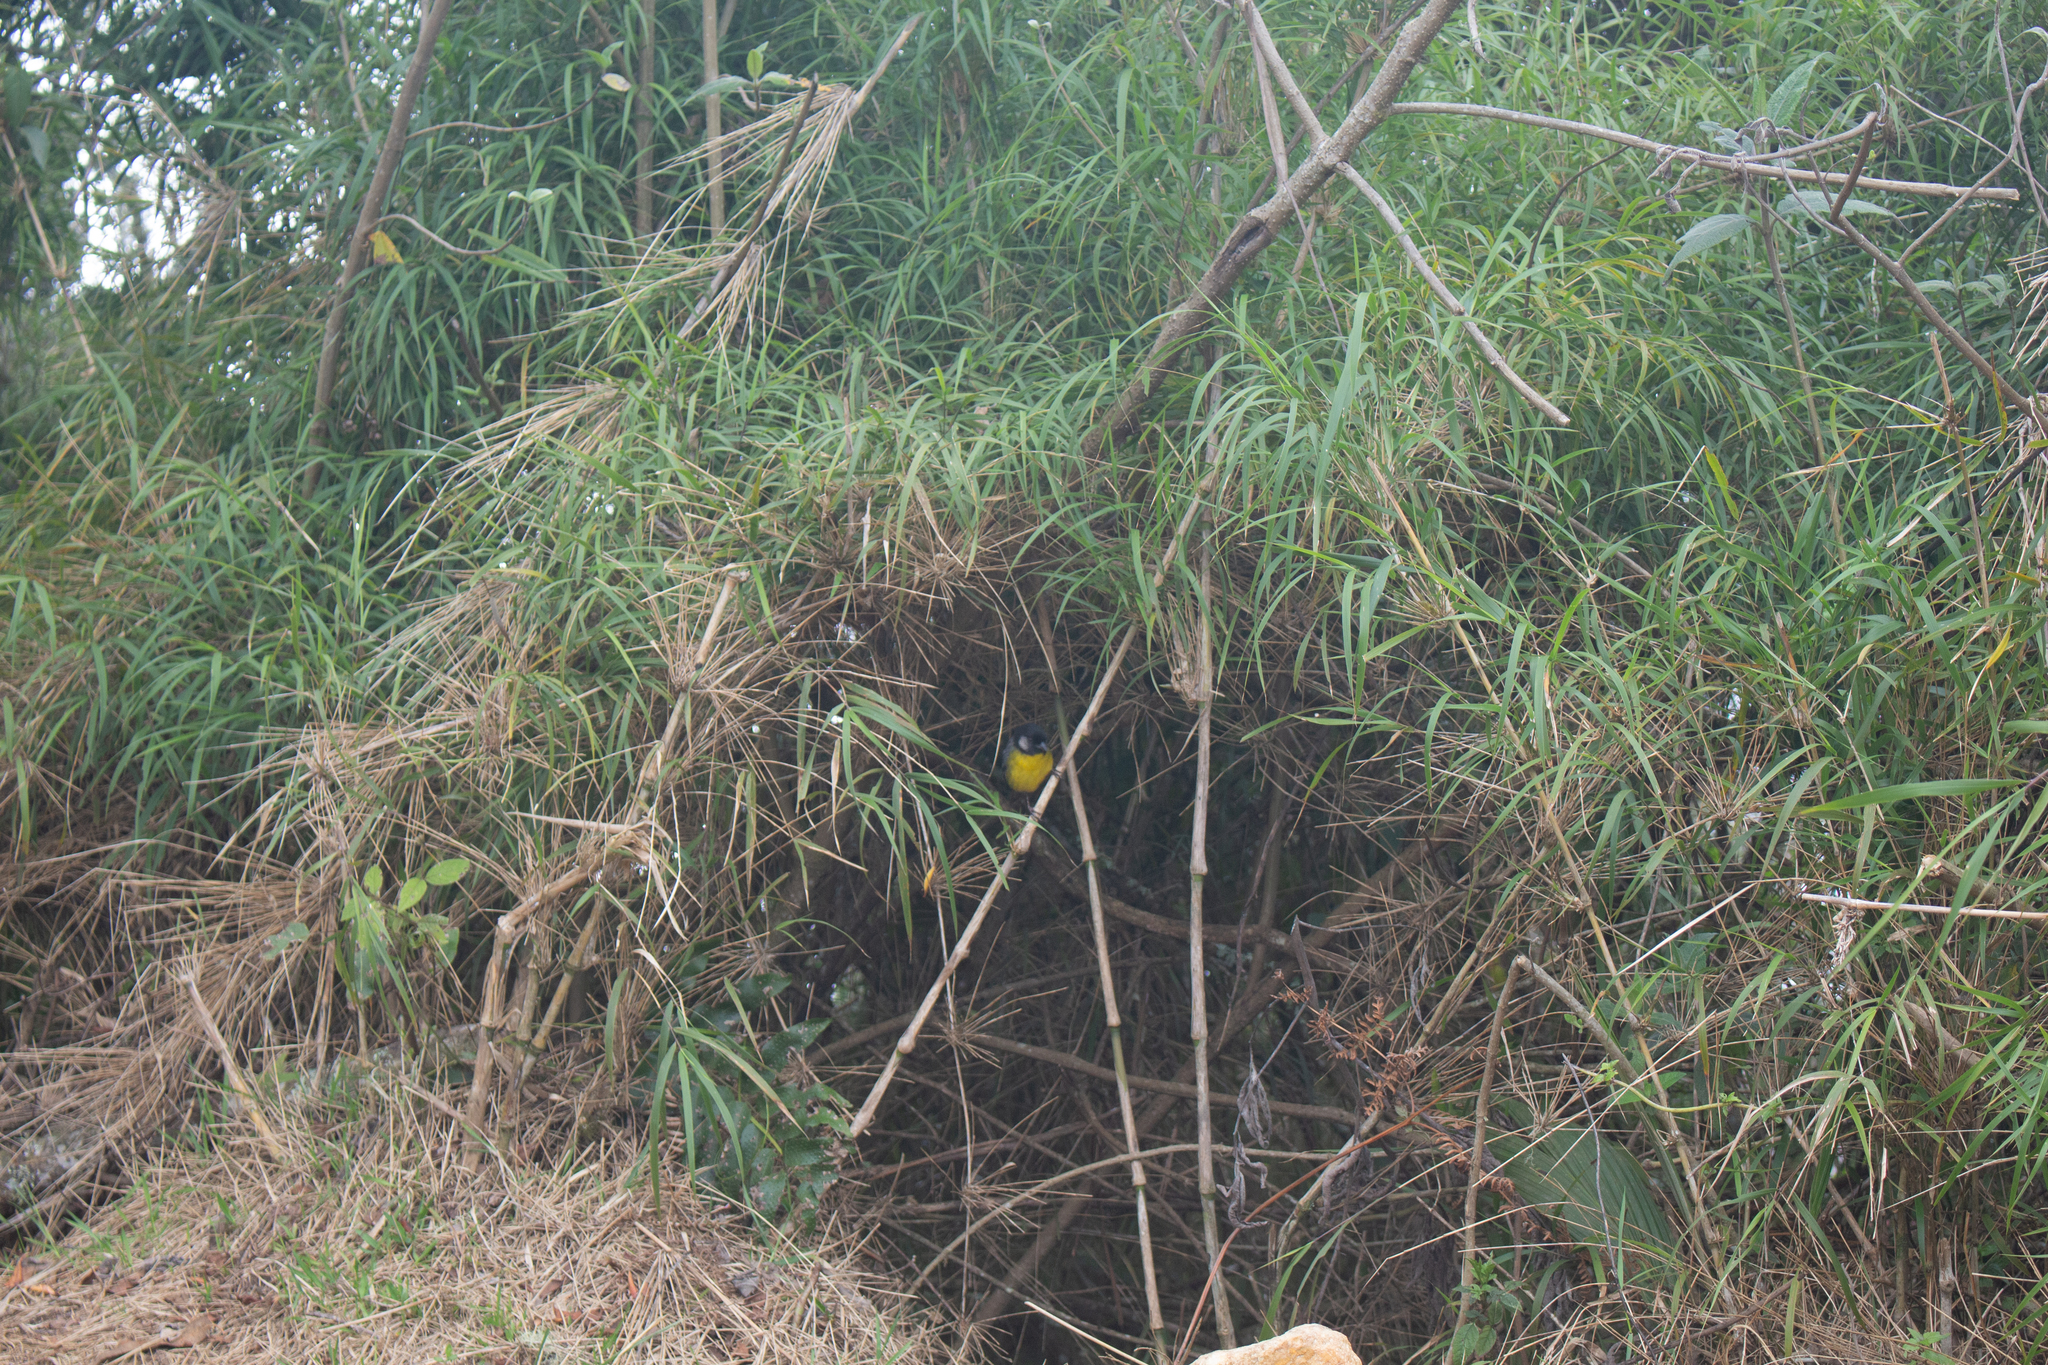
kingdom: Animalia
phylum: Chordata
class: Aves
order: Passeriformes
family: Passerellidae
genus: Atlapetes
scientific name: Atlapetes melanocephalus
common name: Santa marta brush-finch
